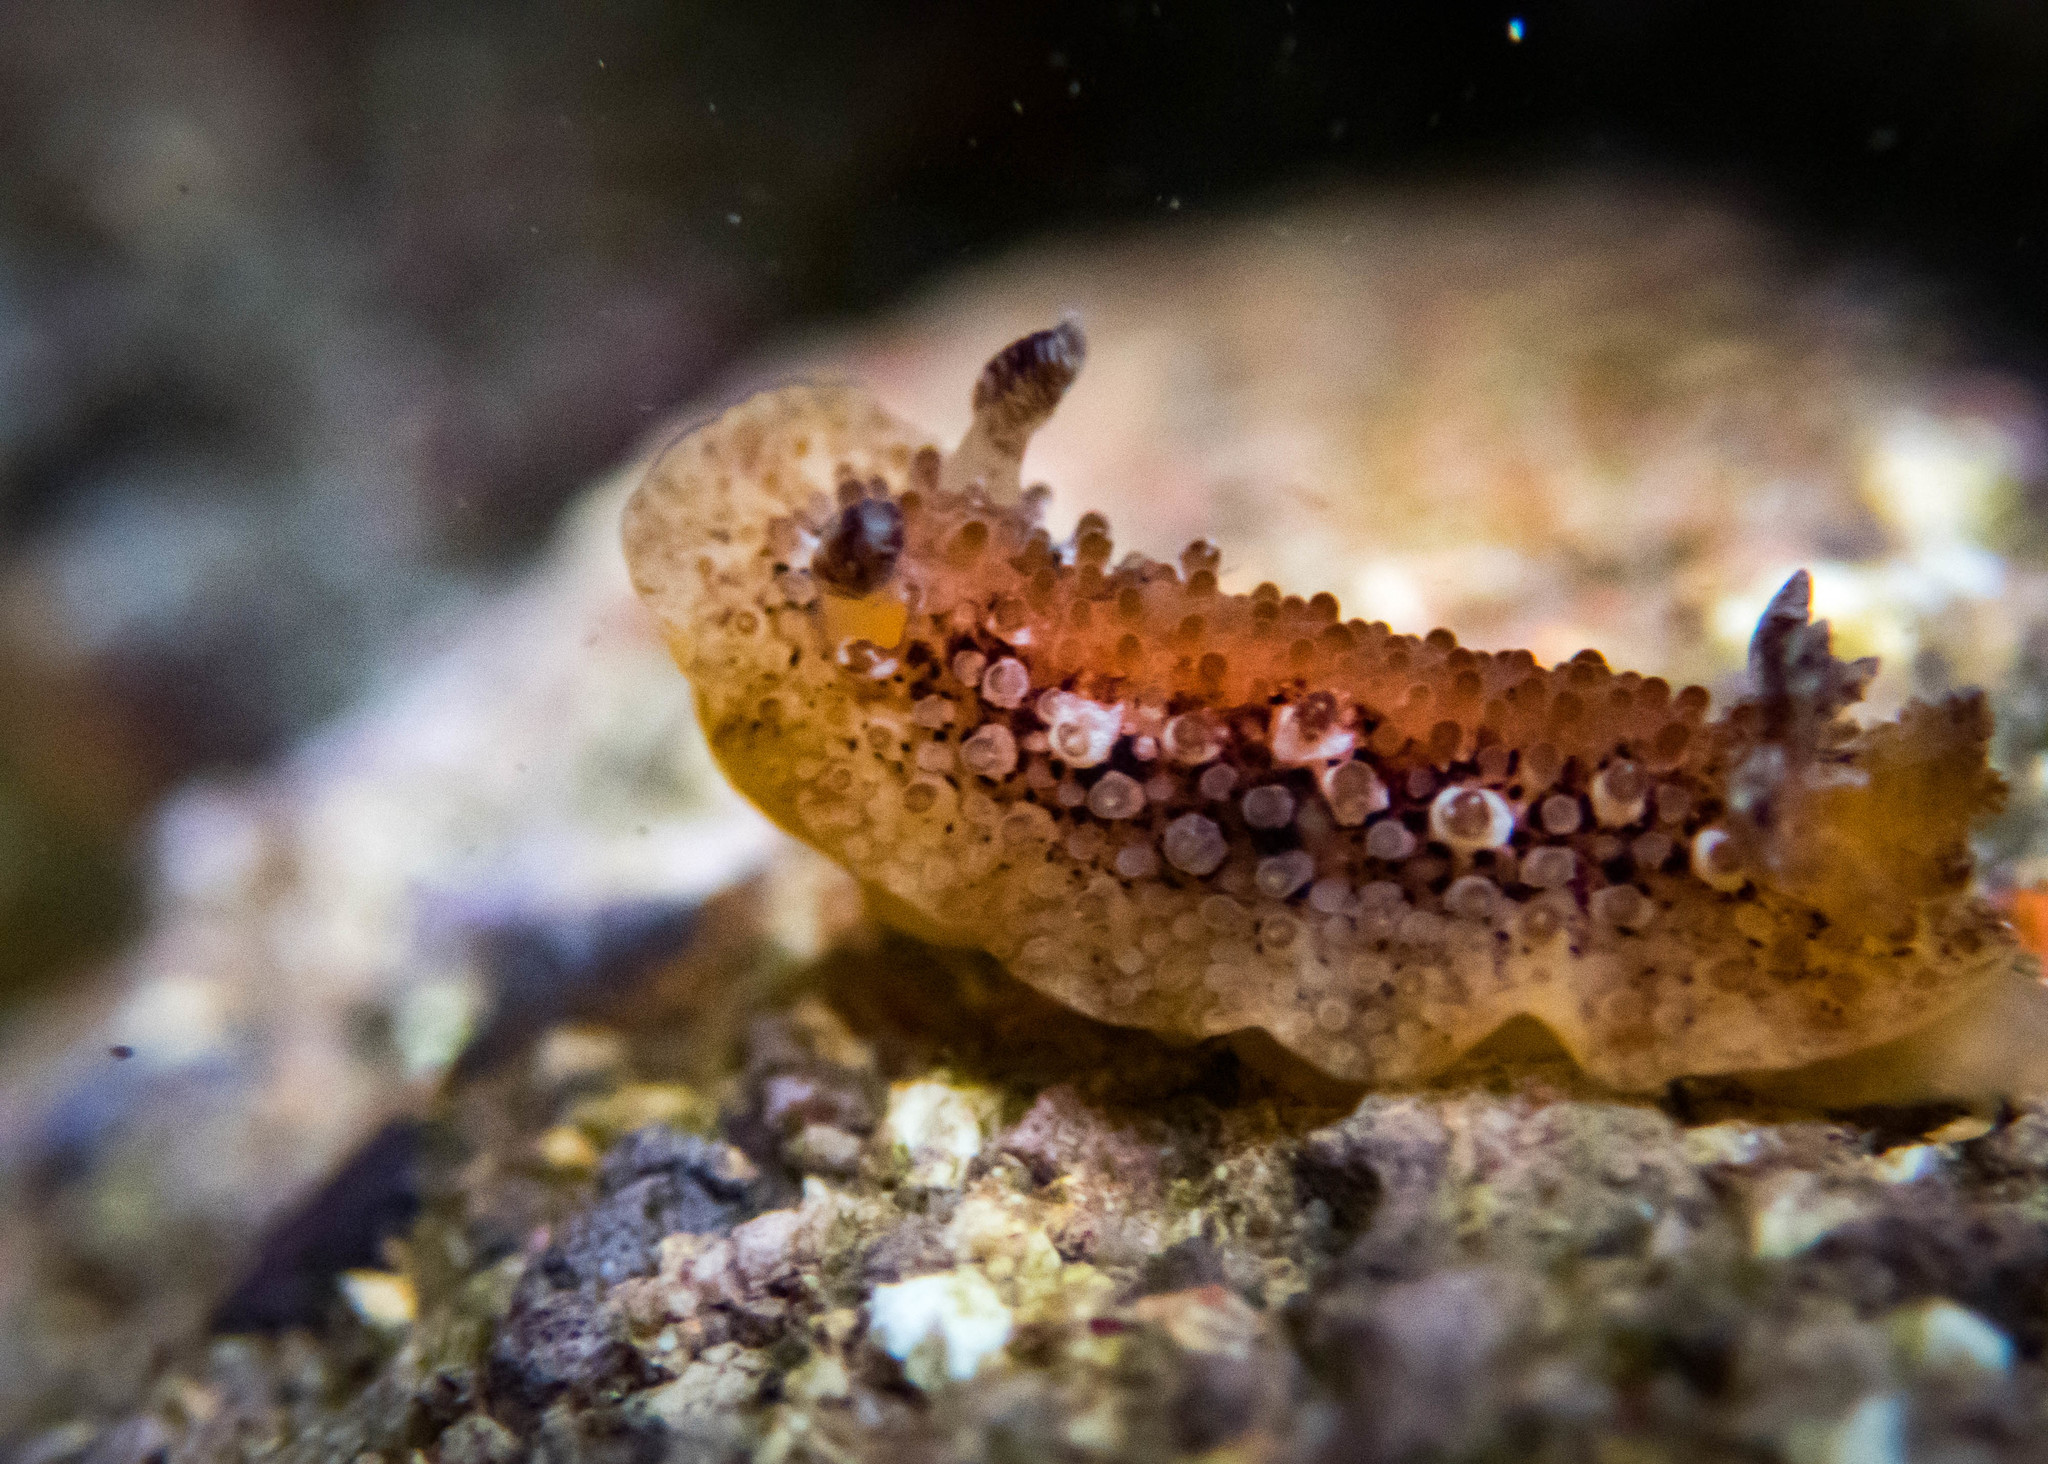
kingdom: Animalia
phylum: Mollusca
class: Gastropoda
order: Nudibranchia
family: Discodorididae
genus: Carminodoris
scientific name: Carminodoris nodulosa
